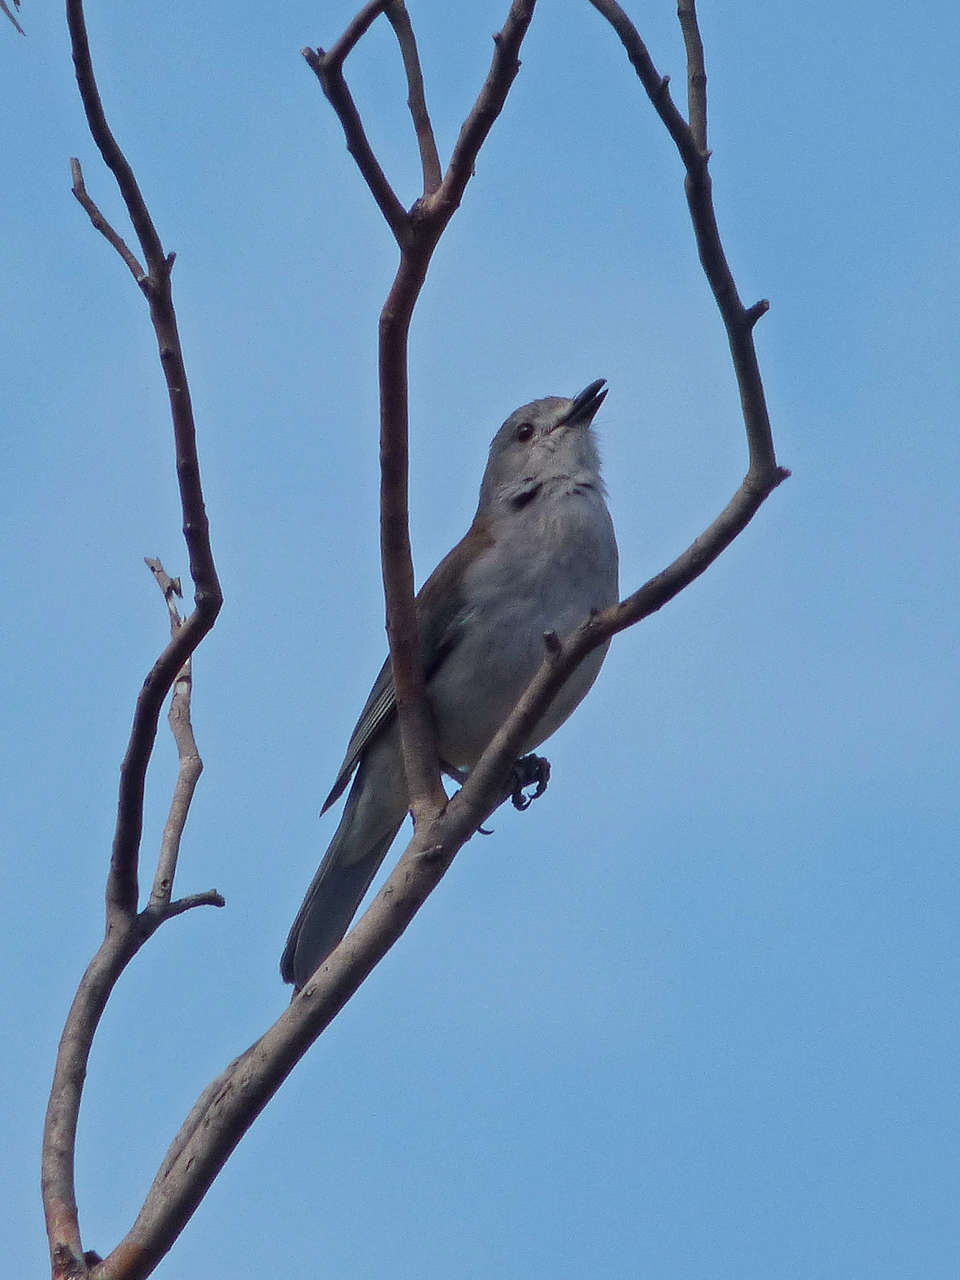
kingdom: Animalia
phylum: Chordata
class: Aves
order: Passeriformes
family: Pachycephalidae
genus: Colluricincla
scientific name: Colluricincla harmonica
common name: Grey shrikethrush
